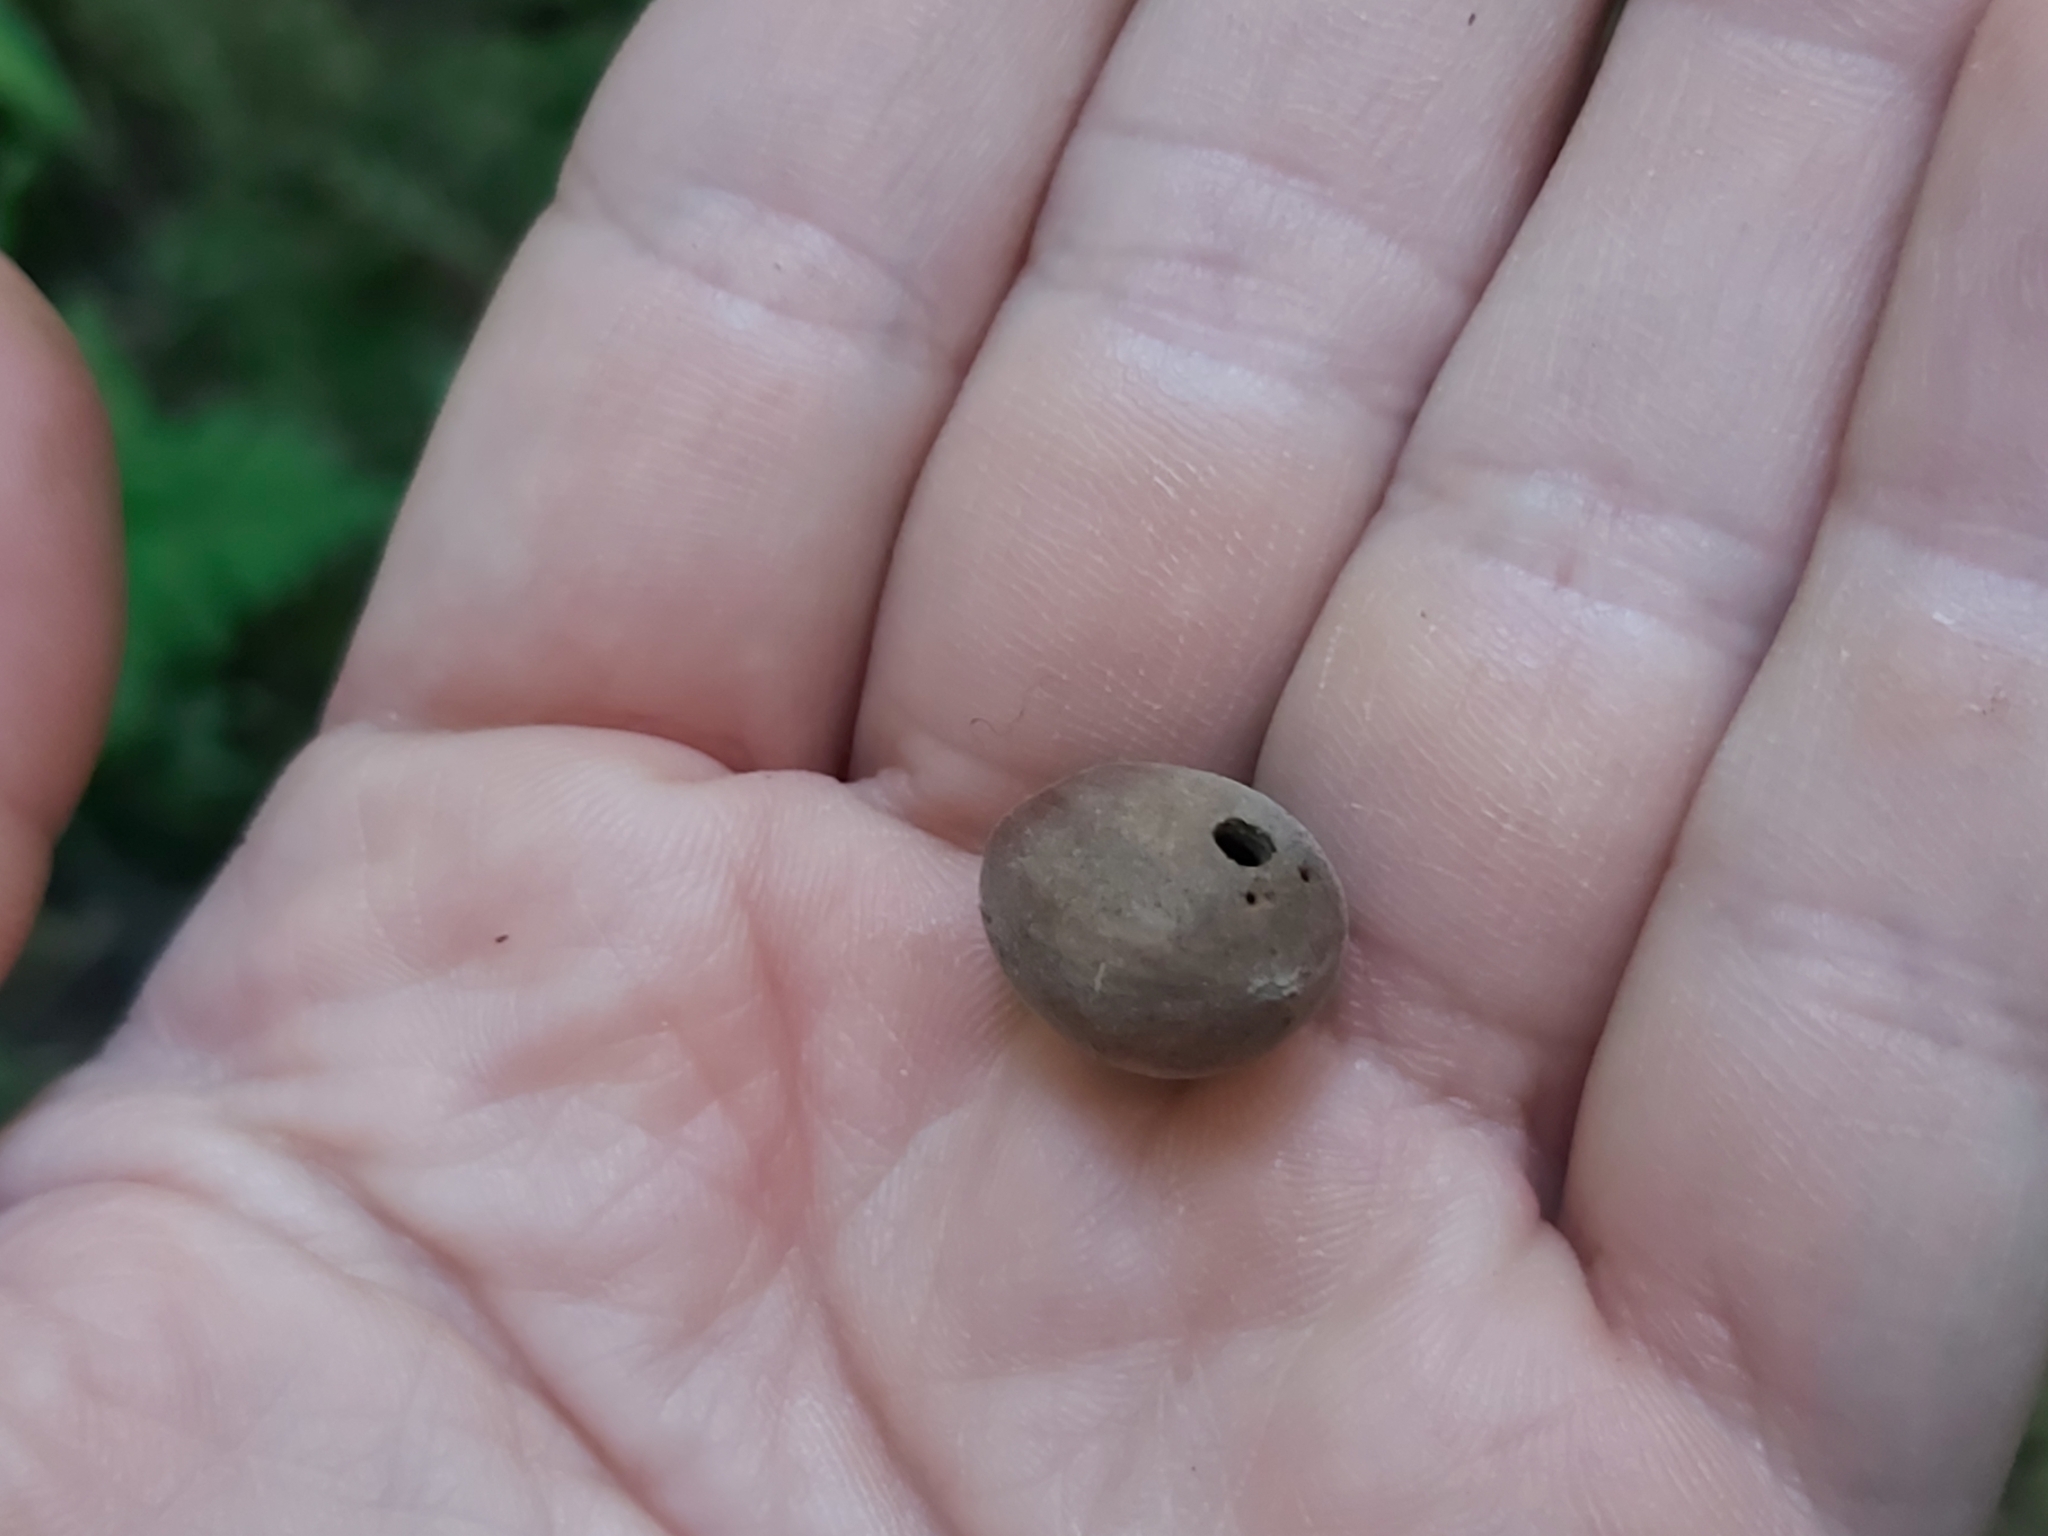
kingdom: Animalia
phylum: Arthropoda
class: Insecta
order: Coleoptera
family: Curculionidae
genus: Curculio
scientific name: Curculio nucum
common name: Nut weevil
